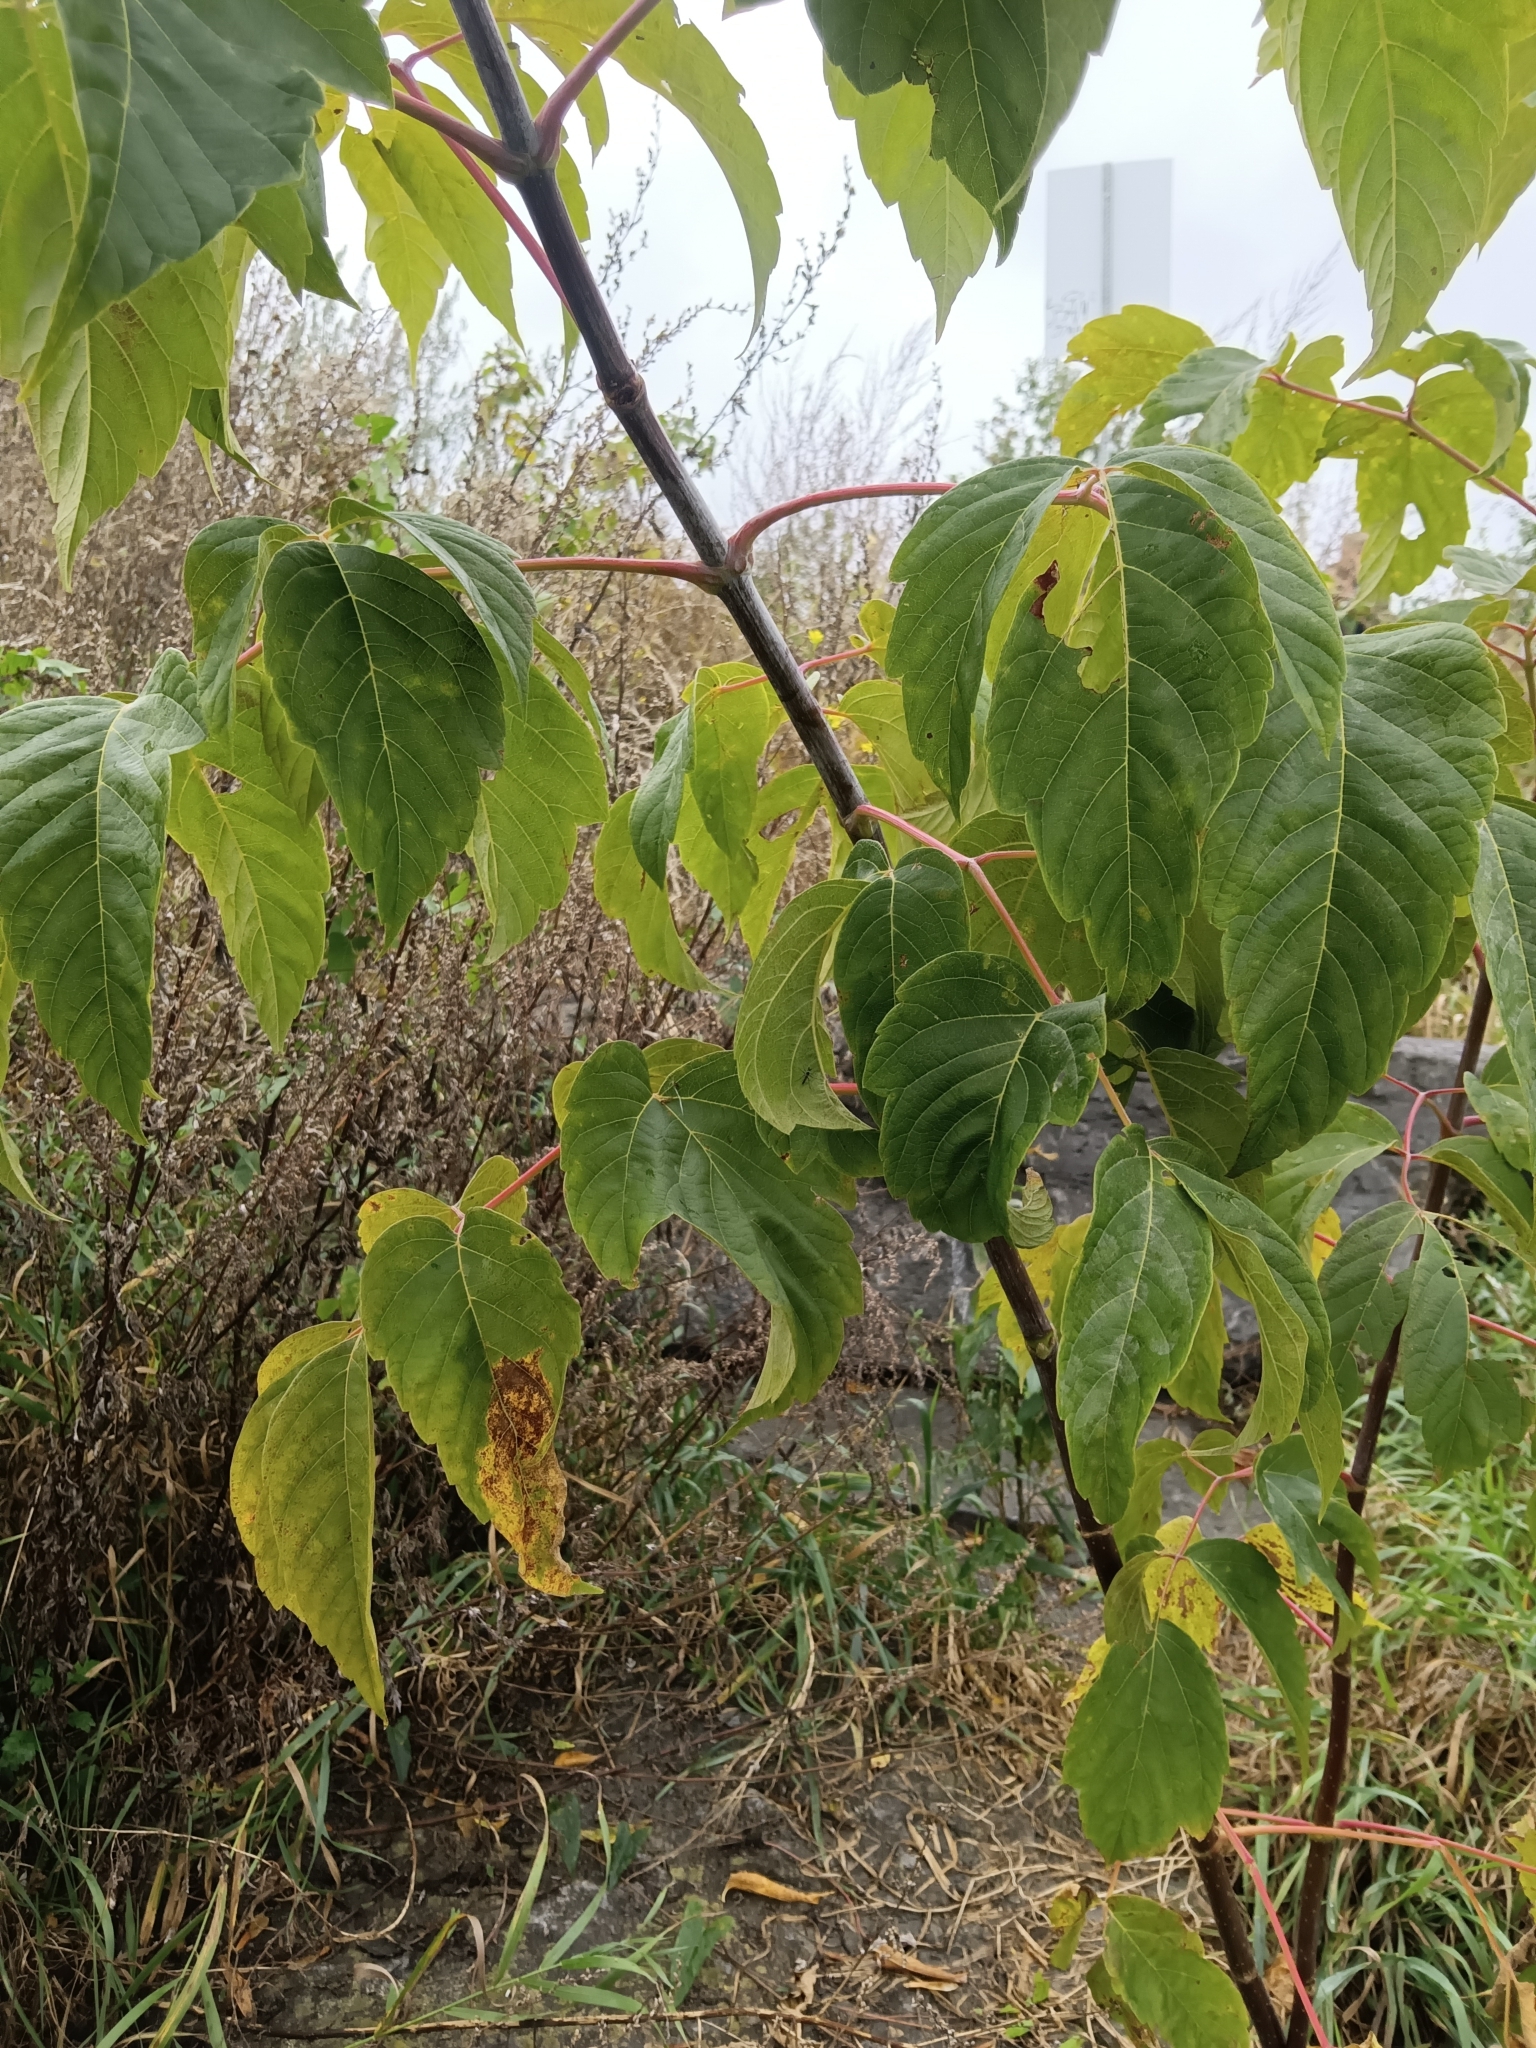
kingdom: Plantae
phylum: Tracheophyta
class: Magnoliopsida
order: Sapindales
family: Sapindaceae
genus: Acer
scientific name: Acer negundo
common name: Ashleaf maple
